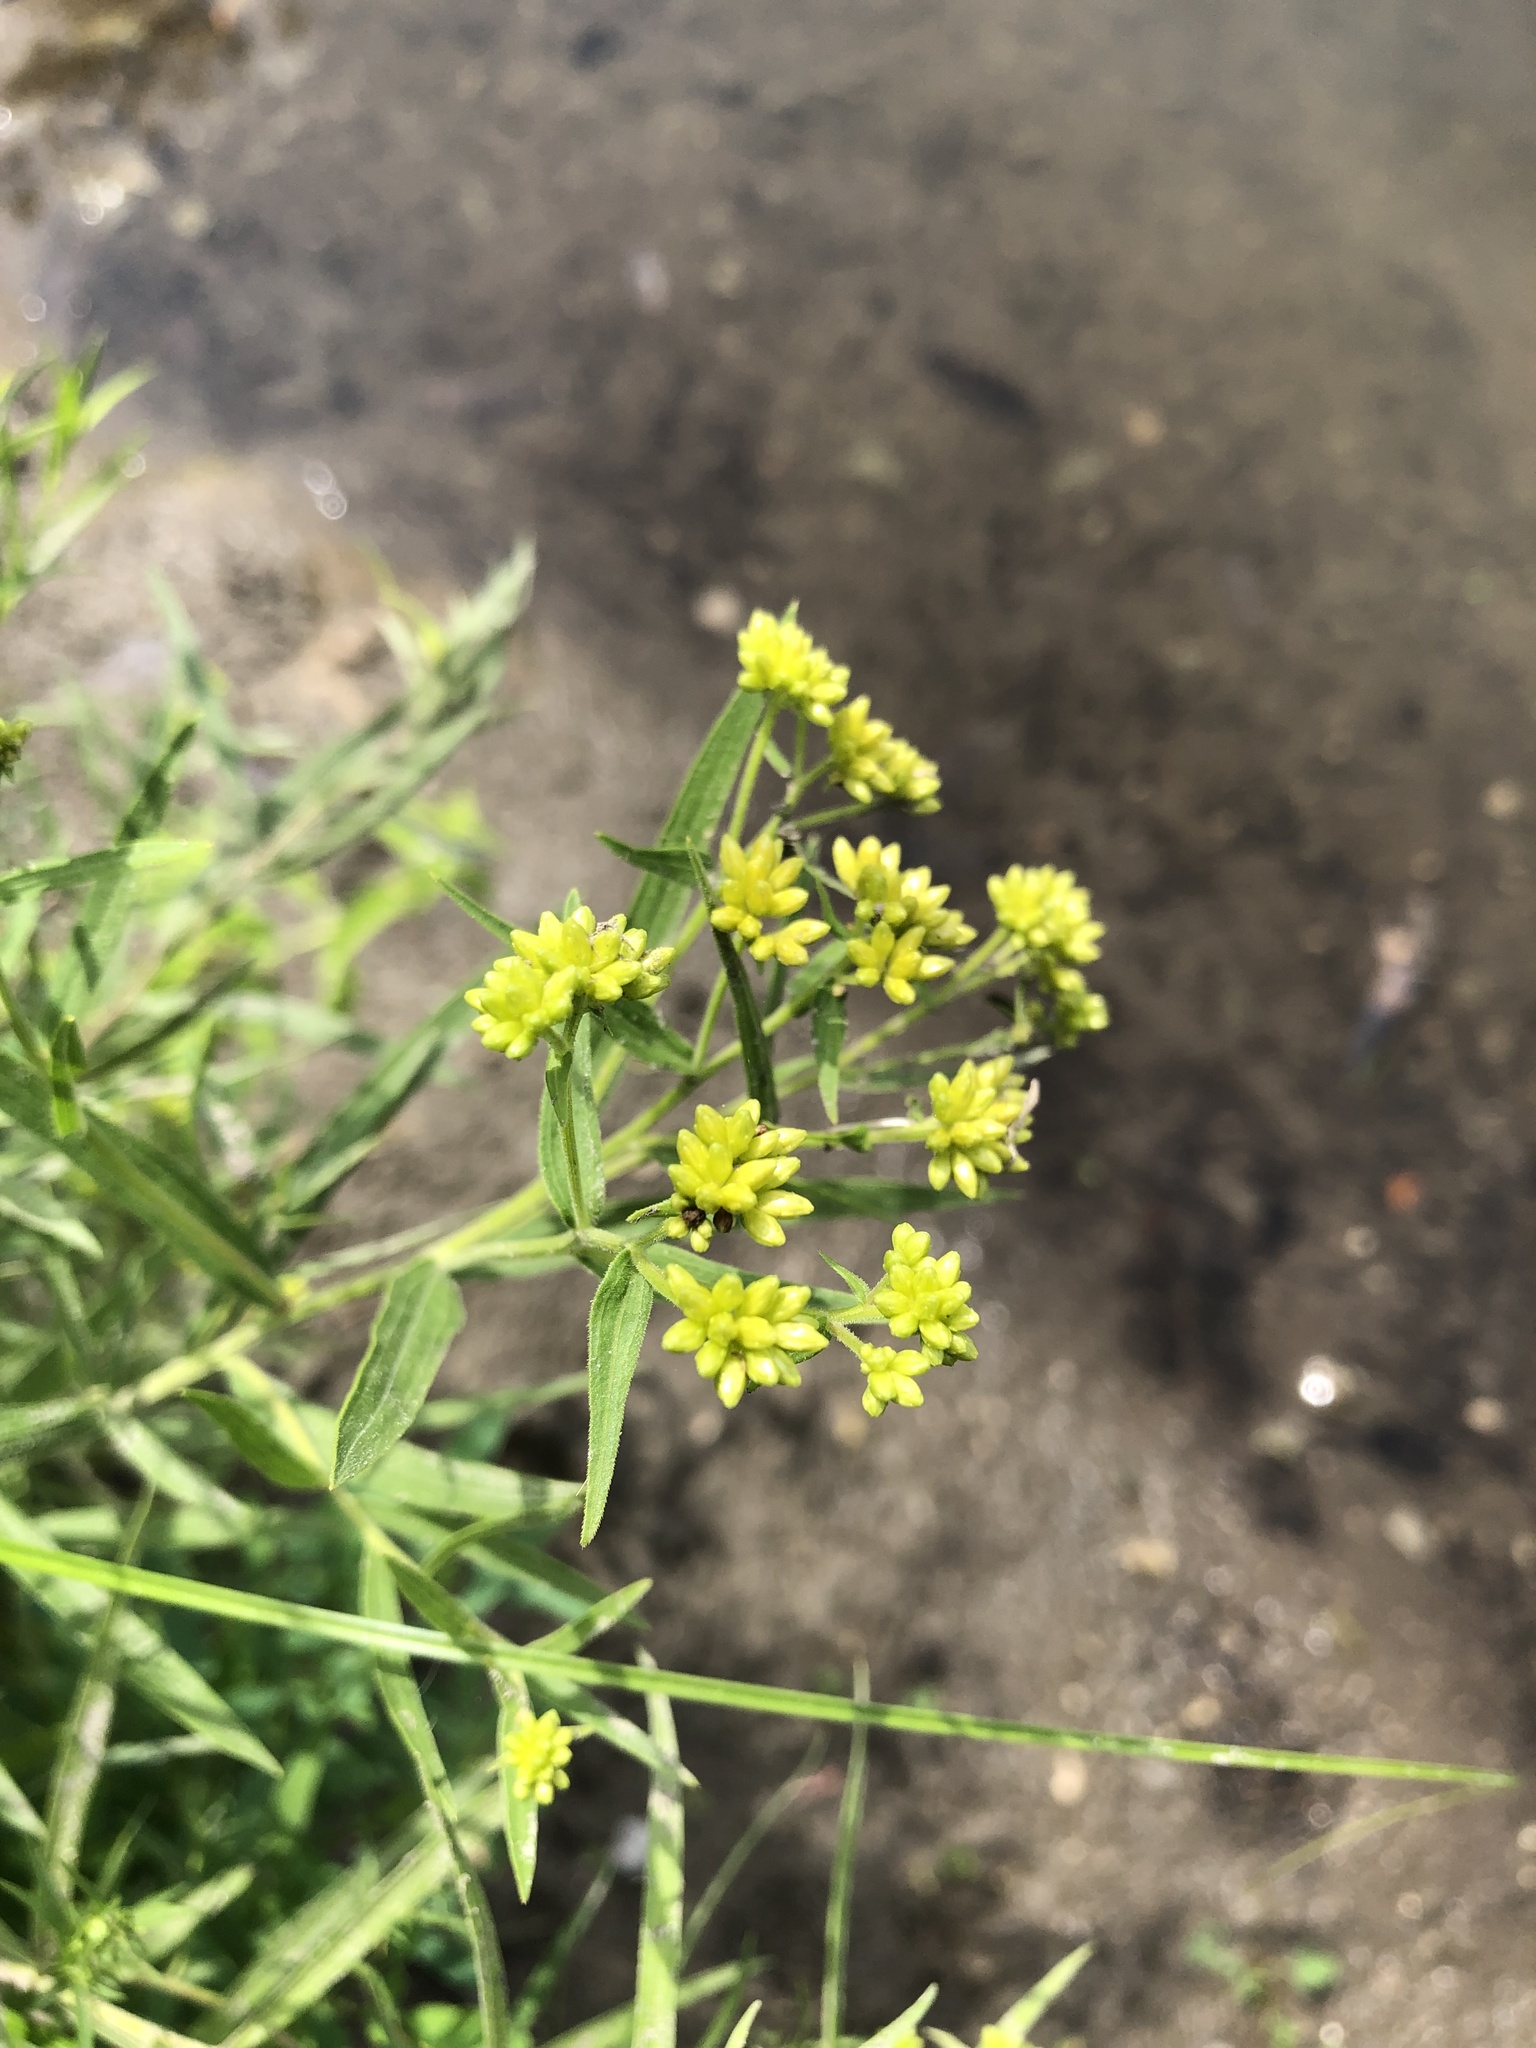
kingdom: Plantae
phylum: Tracheophyta
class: Magnoliopsida
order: Asterales
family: Asteraceae
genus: Euthamia
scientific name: Euthamia graminifolia
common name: Common goldentop
